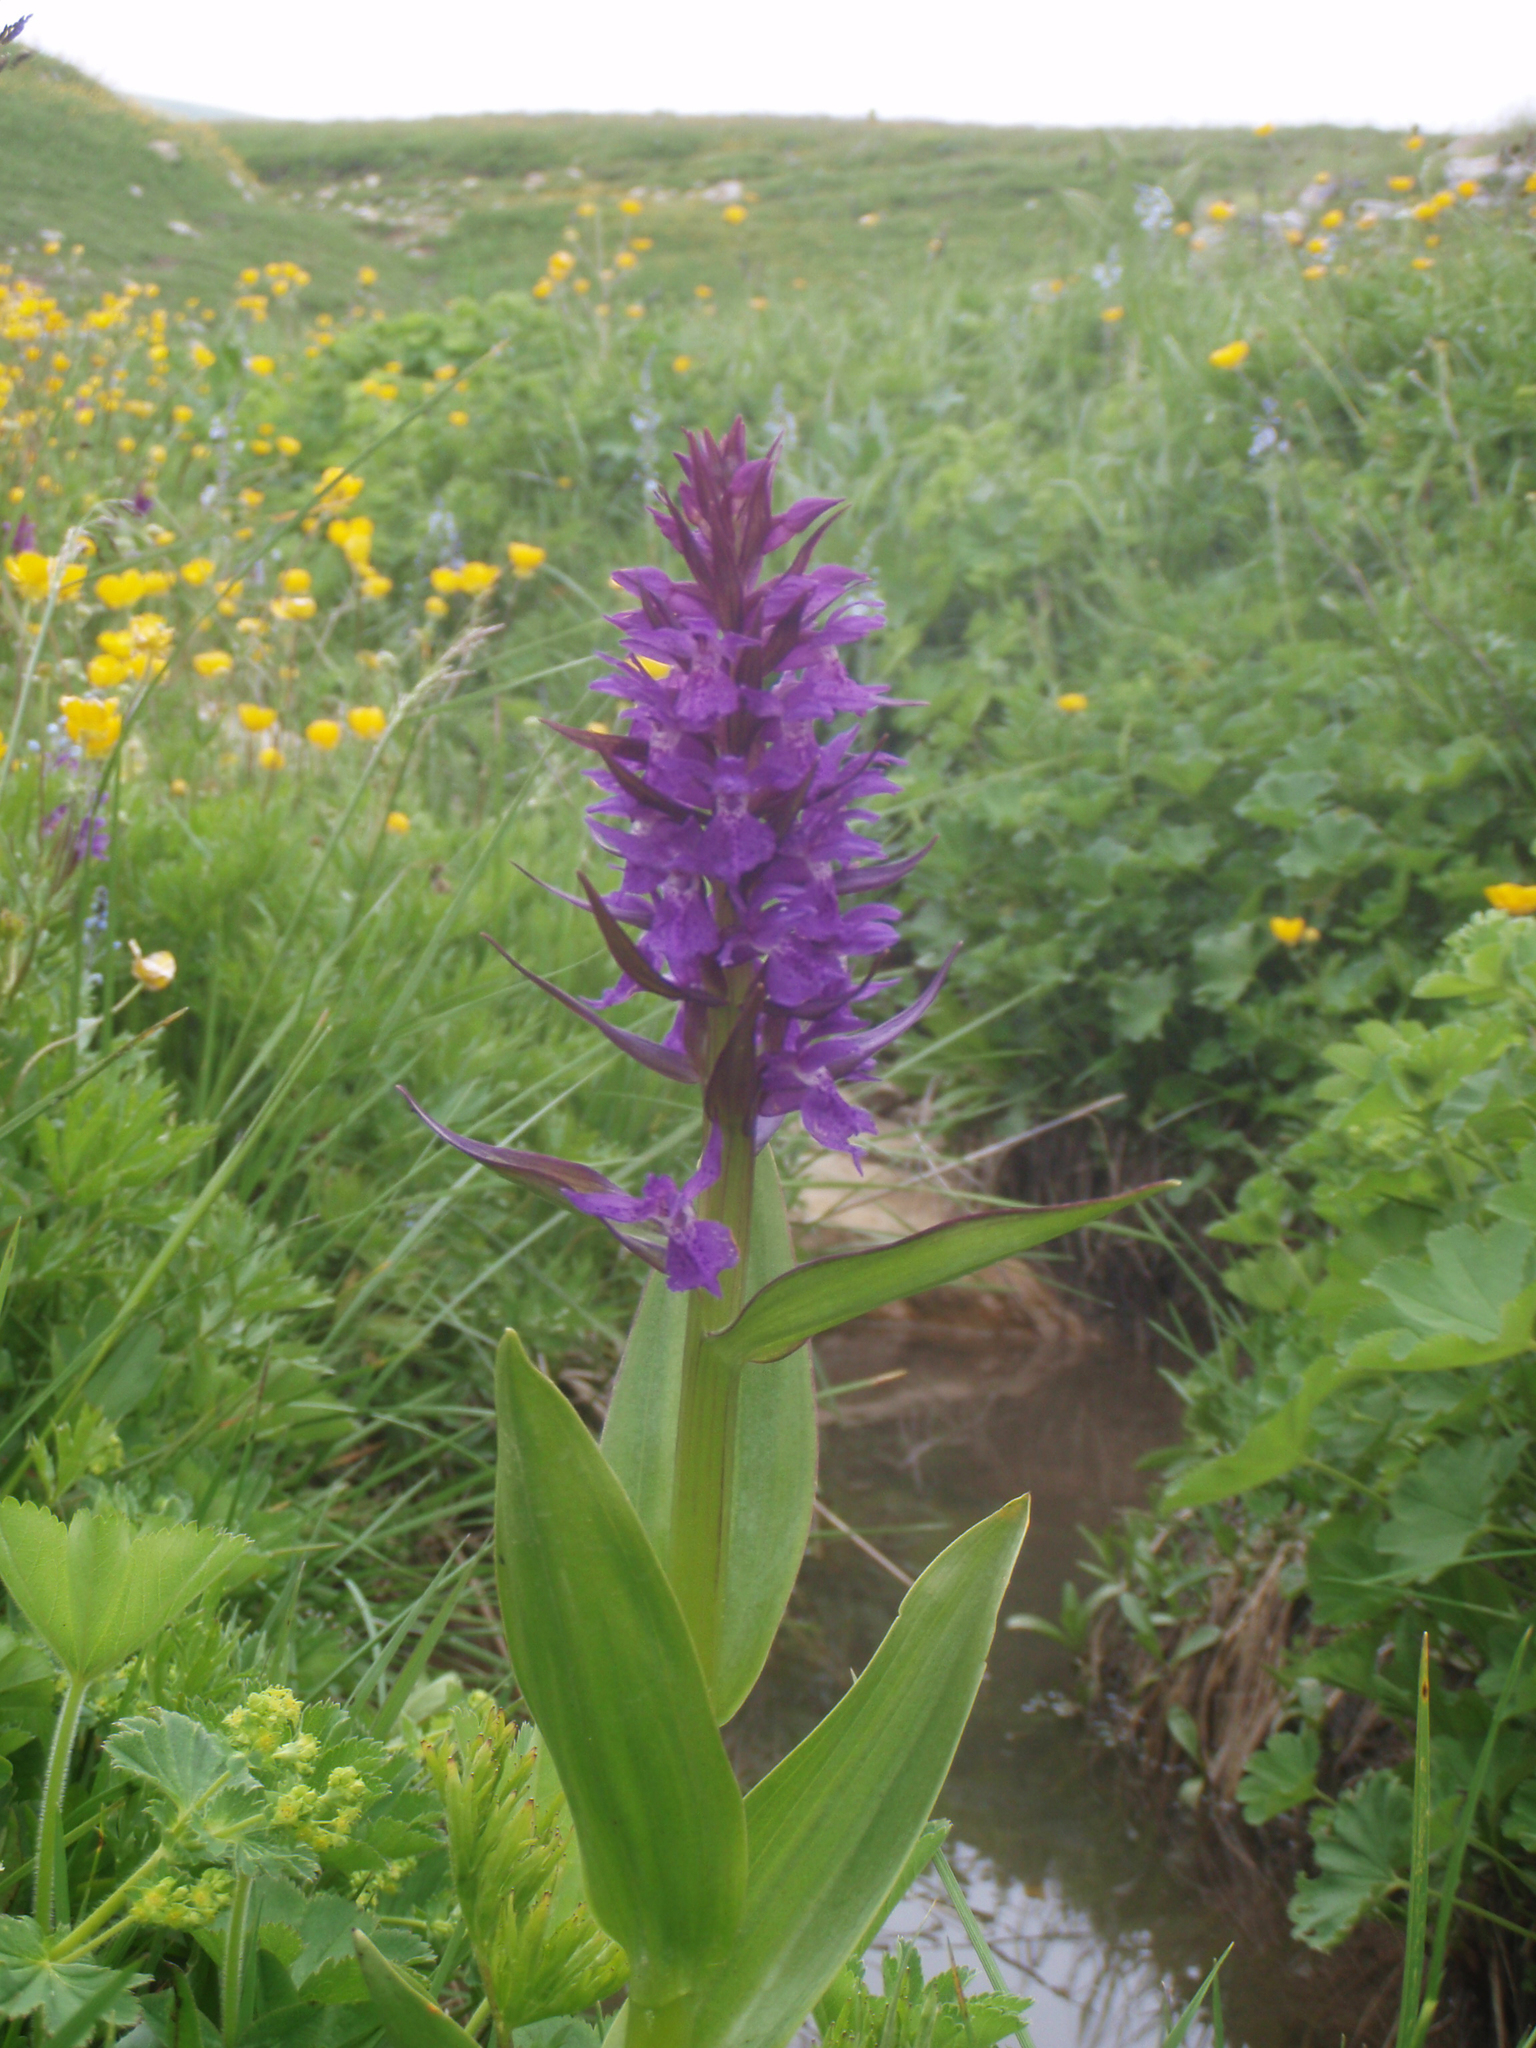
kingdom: Plantae
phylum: Tracheophyta
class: Liliopsida
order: Asparagales
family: Orchidaceae
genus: Dactylorhiza
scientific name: Dactylorhiza urvilleana
